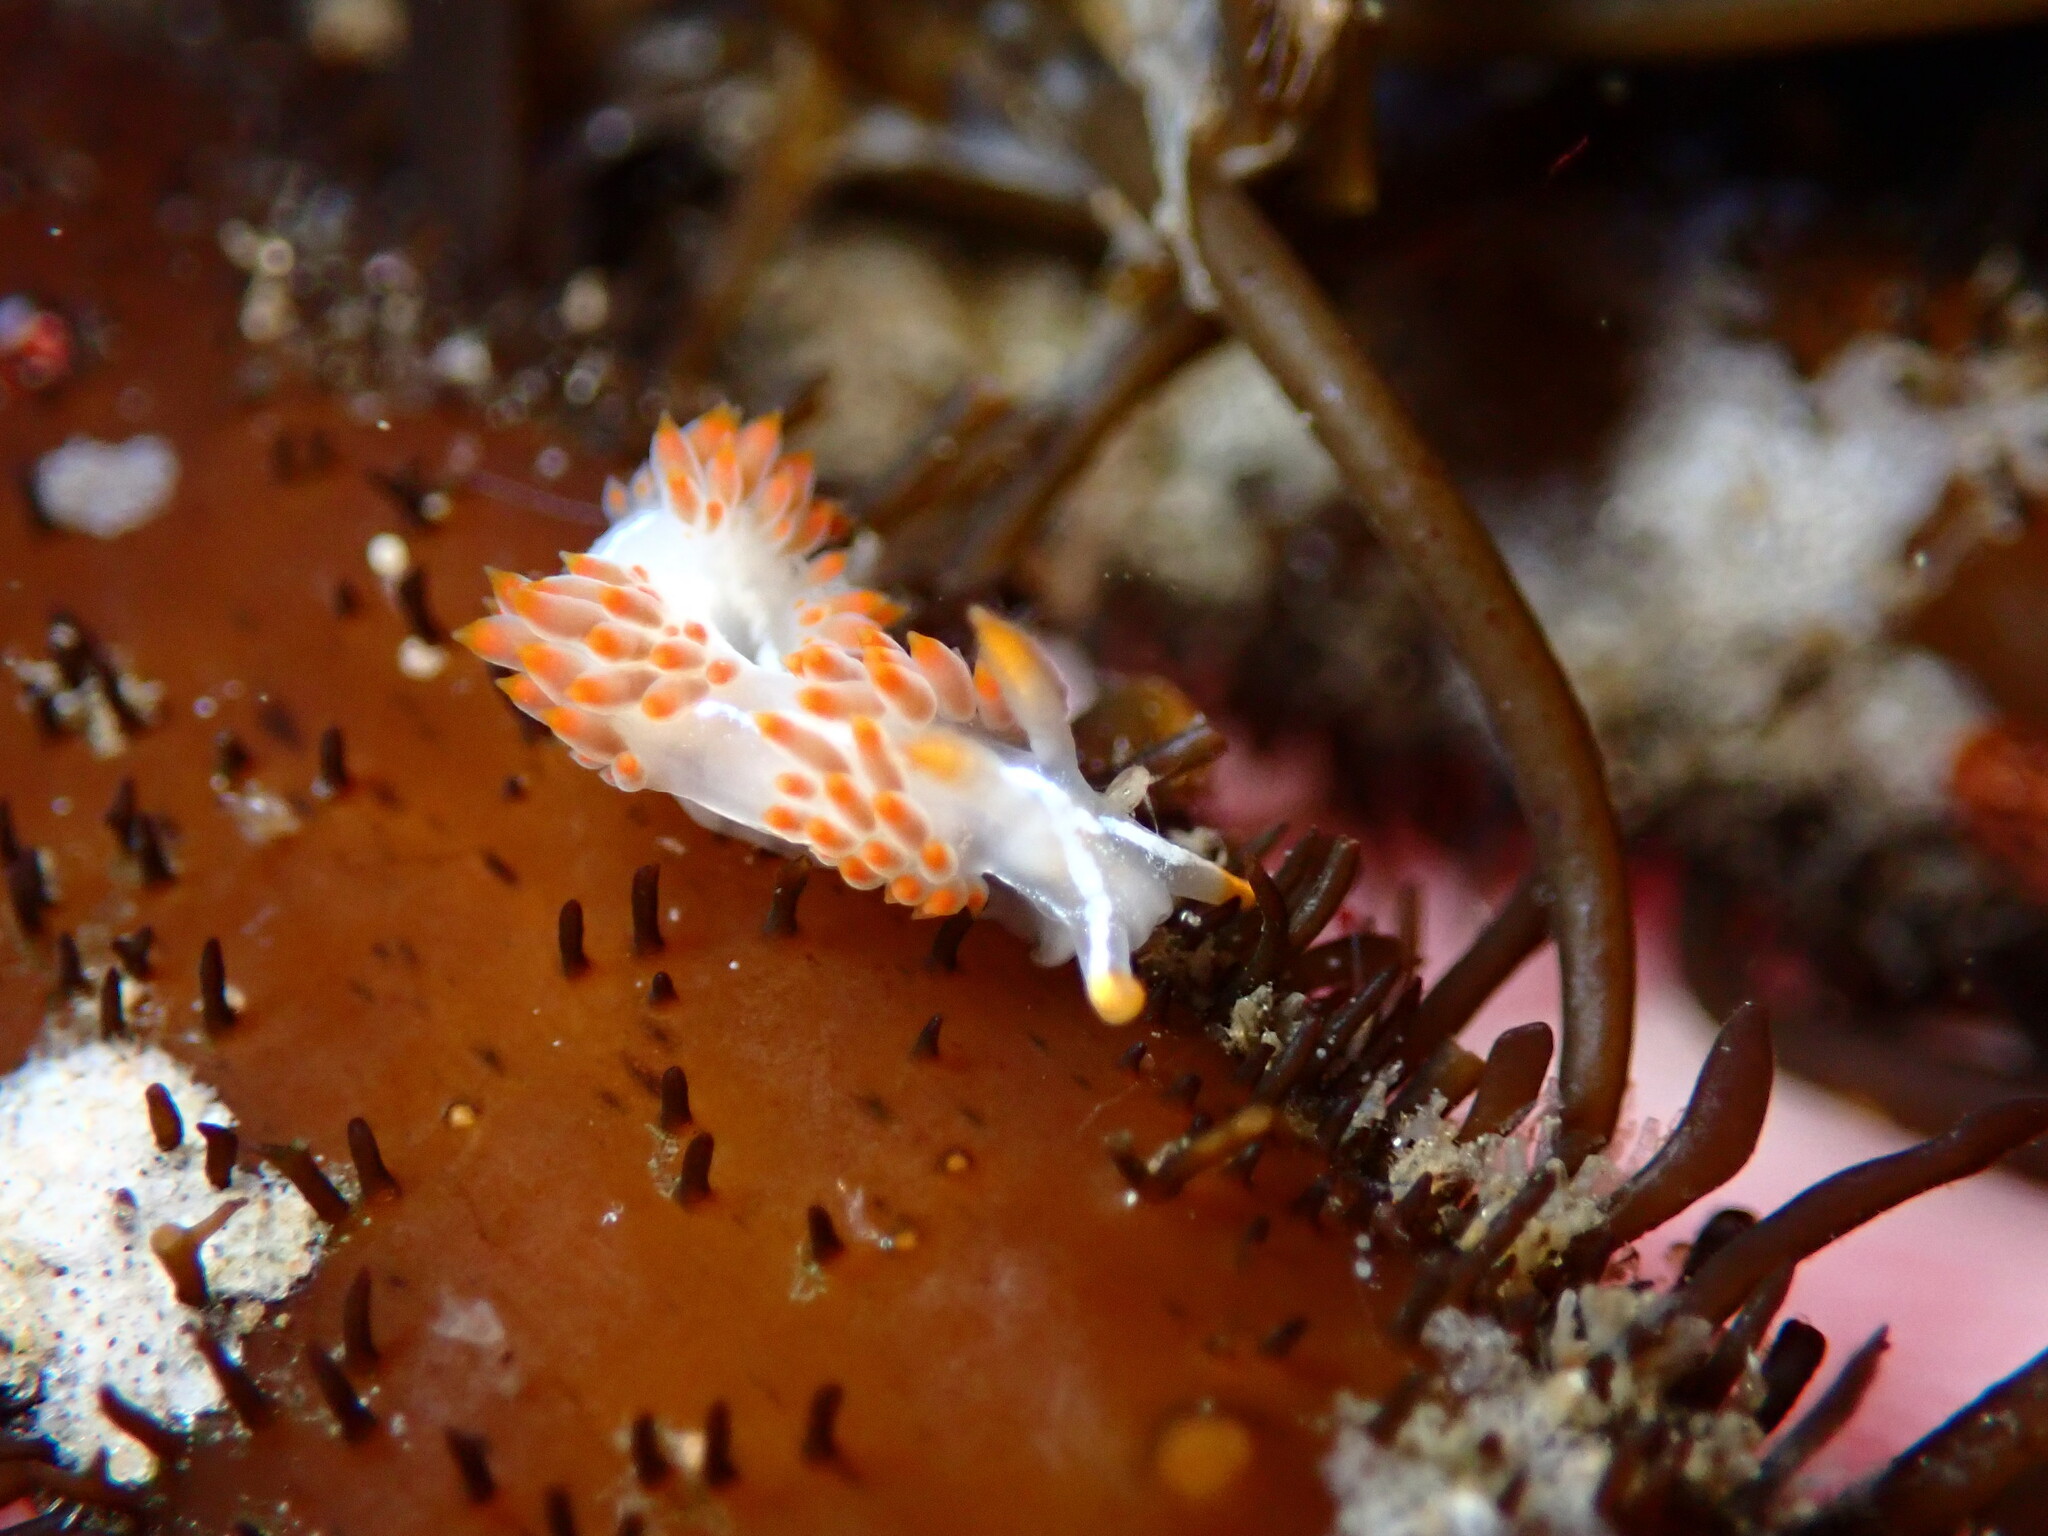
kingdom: Animalia
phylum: Mollusca
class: Gastropoda
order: Nudibranchia
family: Coryphellidae
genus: Coryphella
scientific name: Coryphella trilineata
